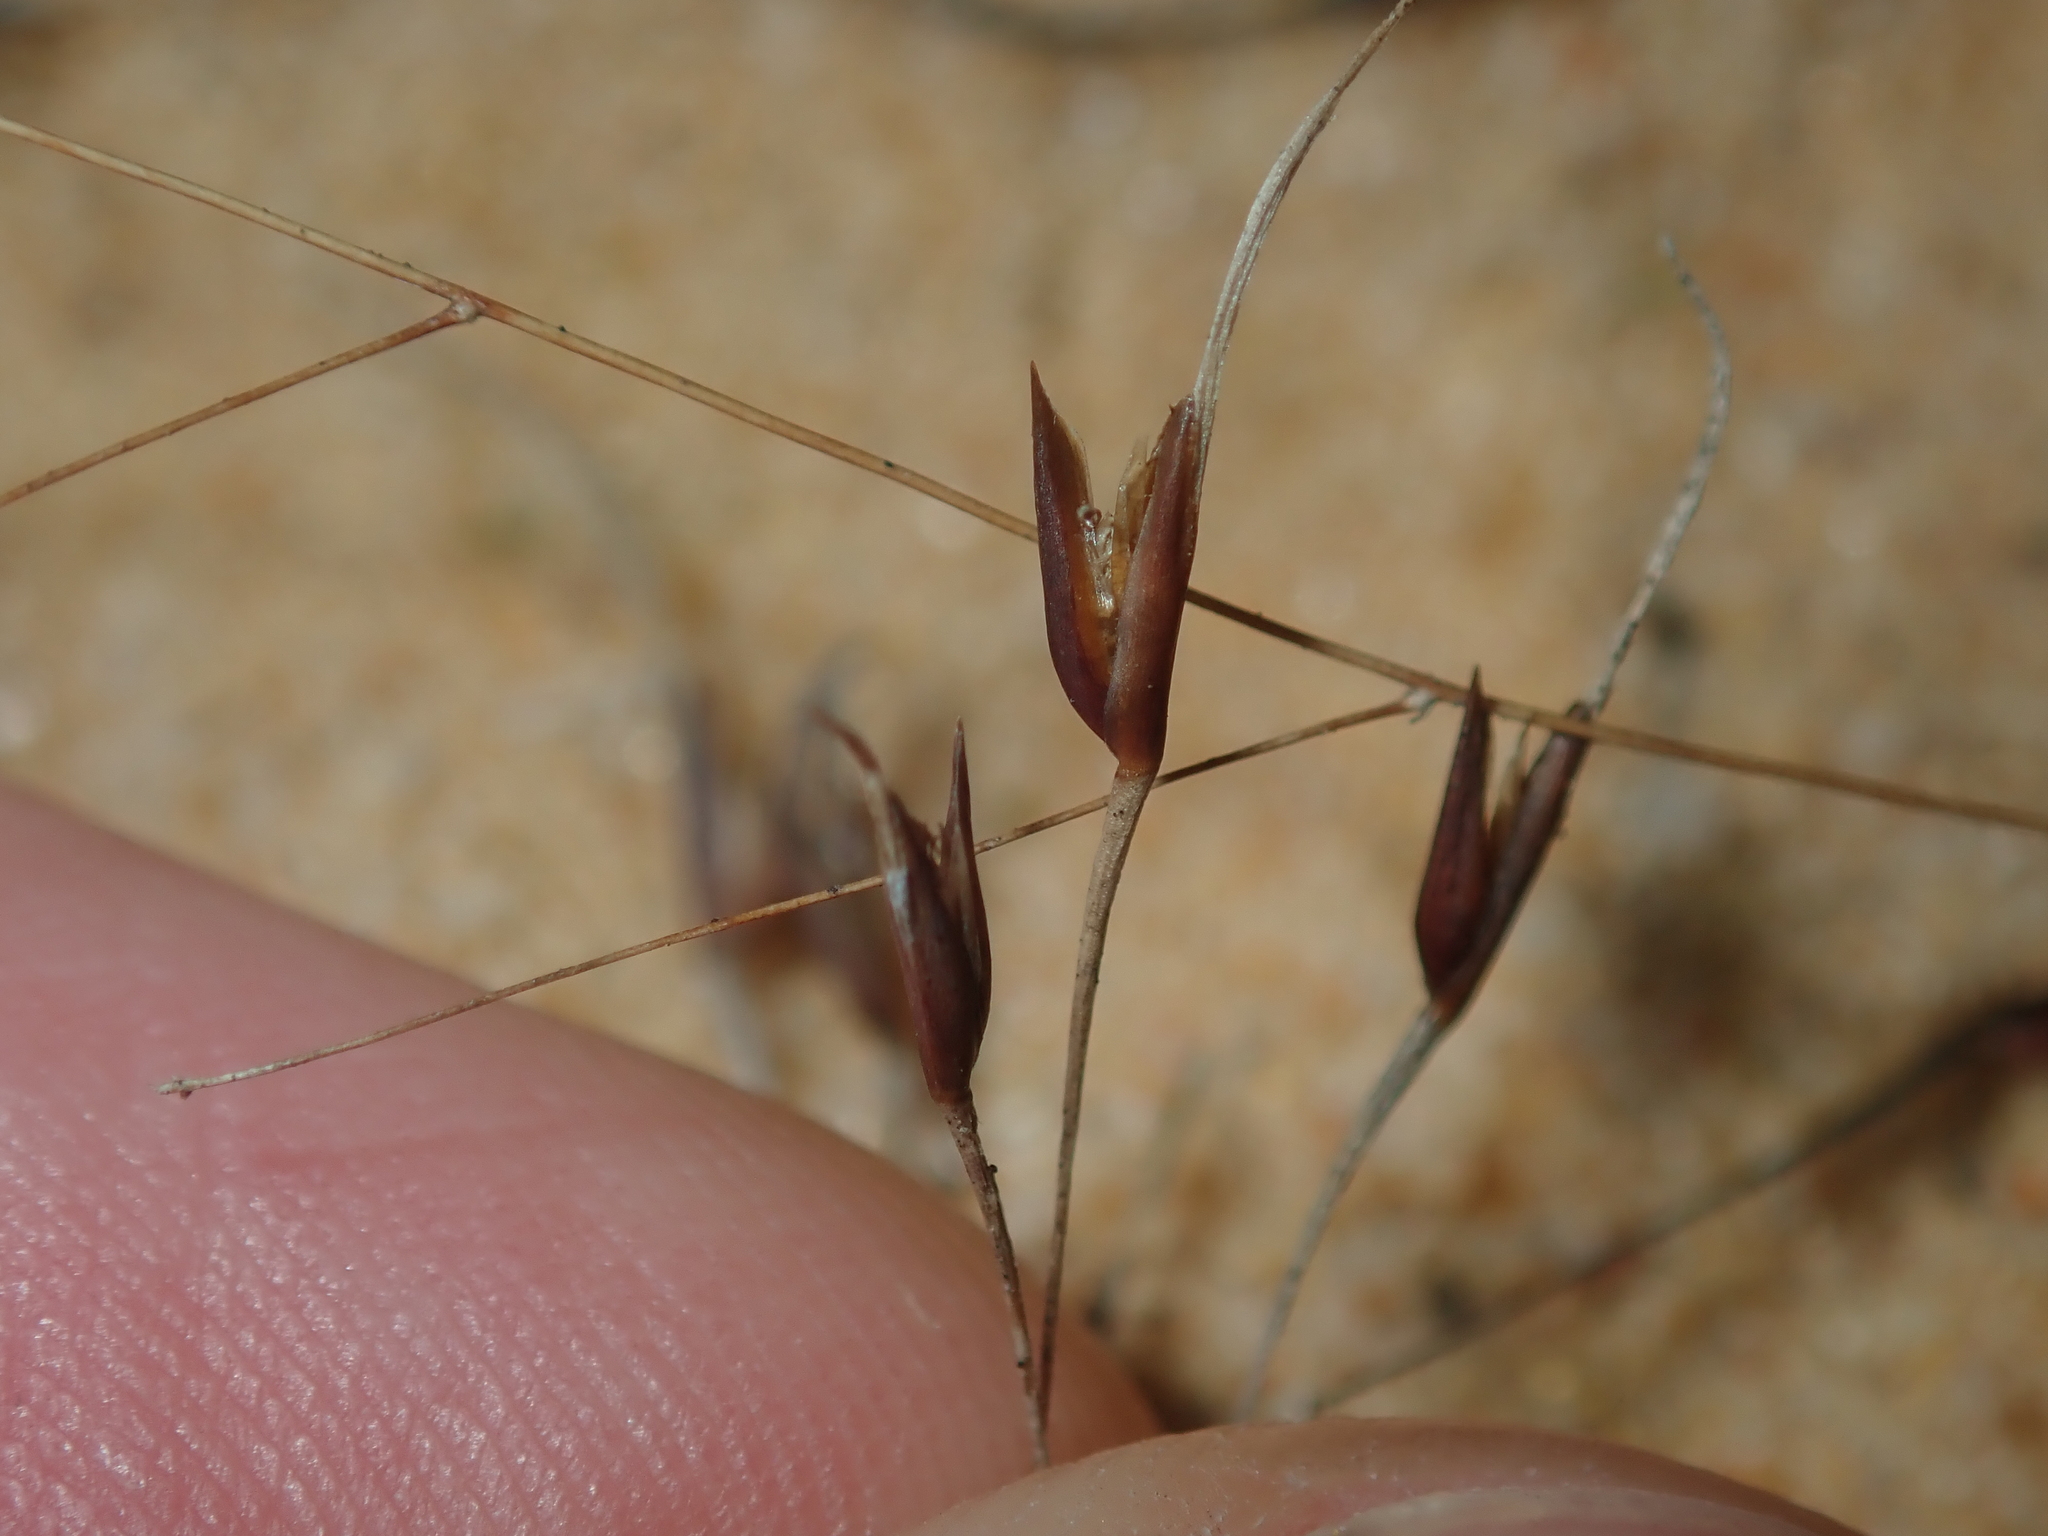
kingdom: Plantae
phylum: Tracheophyta
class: Liliopsida
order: Poales
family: Restionaceae
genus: Centrolepis
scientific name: Centrolepis drummondiana
